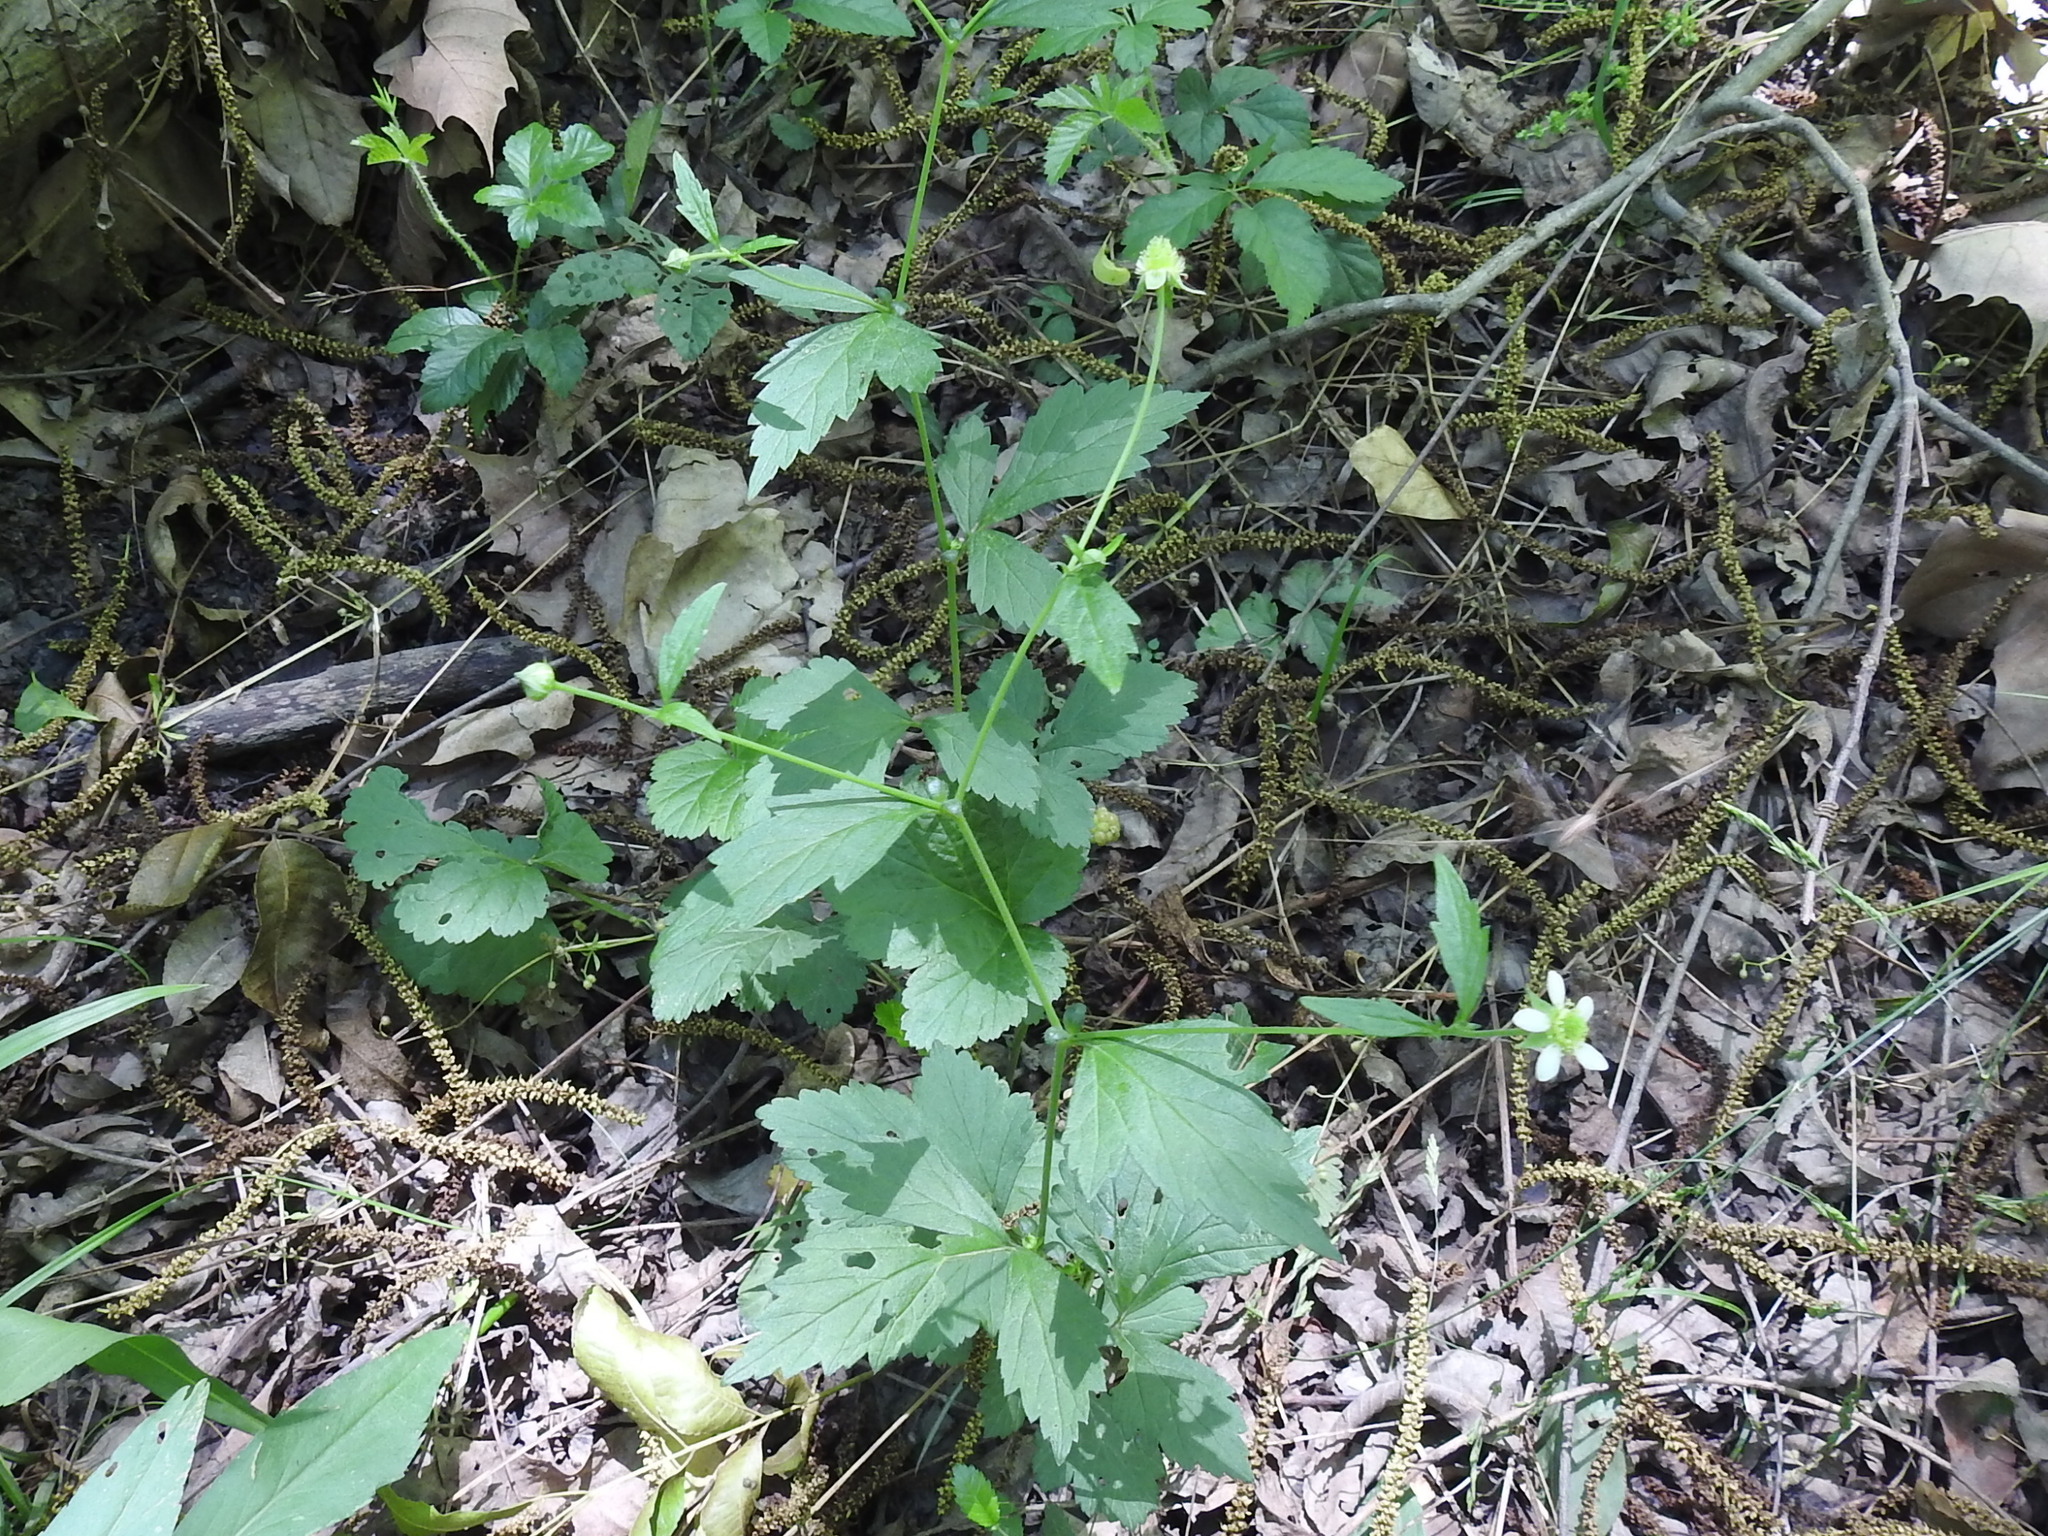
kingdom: Plantae
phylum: Tracheophyta
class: Magnoliopsida
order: Rosales
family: Rosaceae
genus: Geum
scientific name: Geum canadense
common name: White avens
